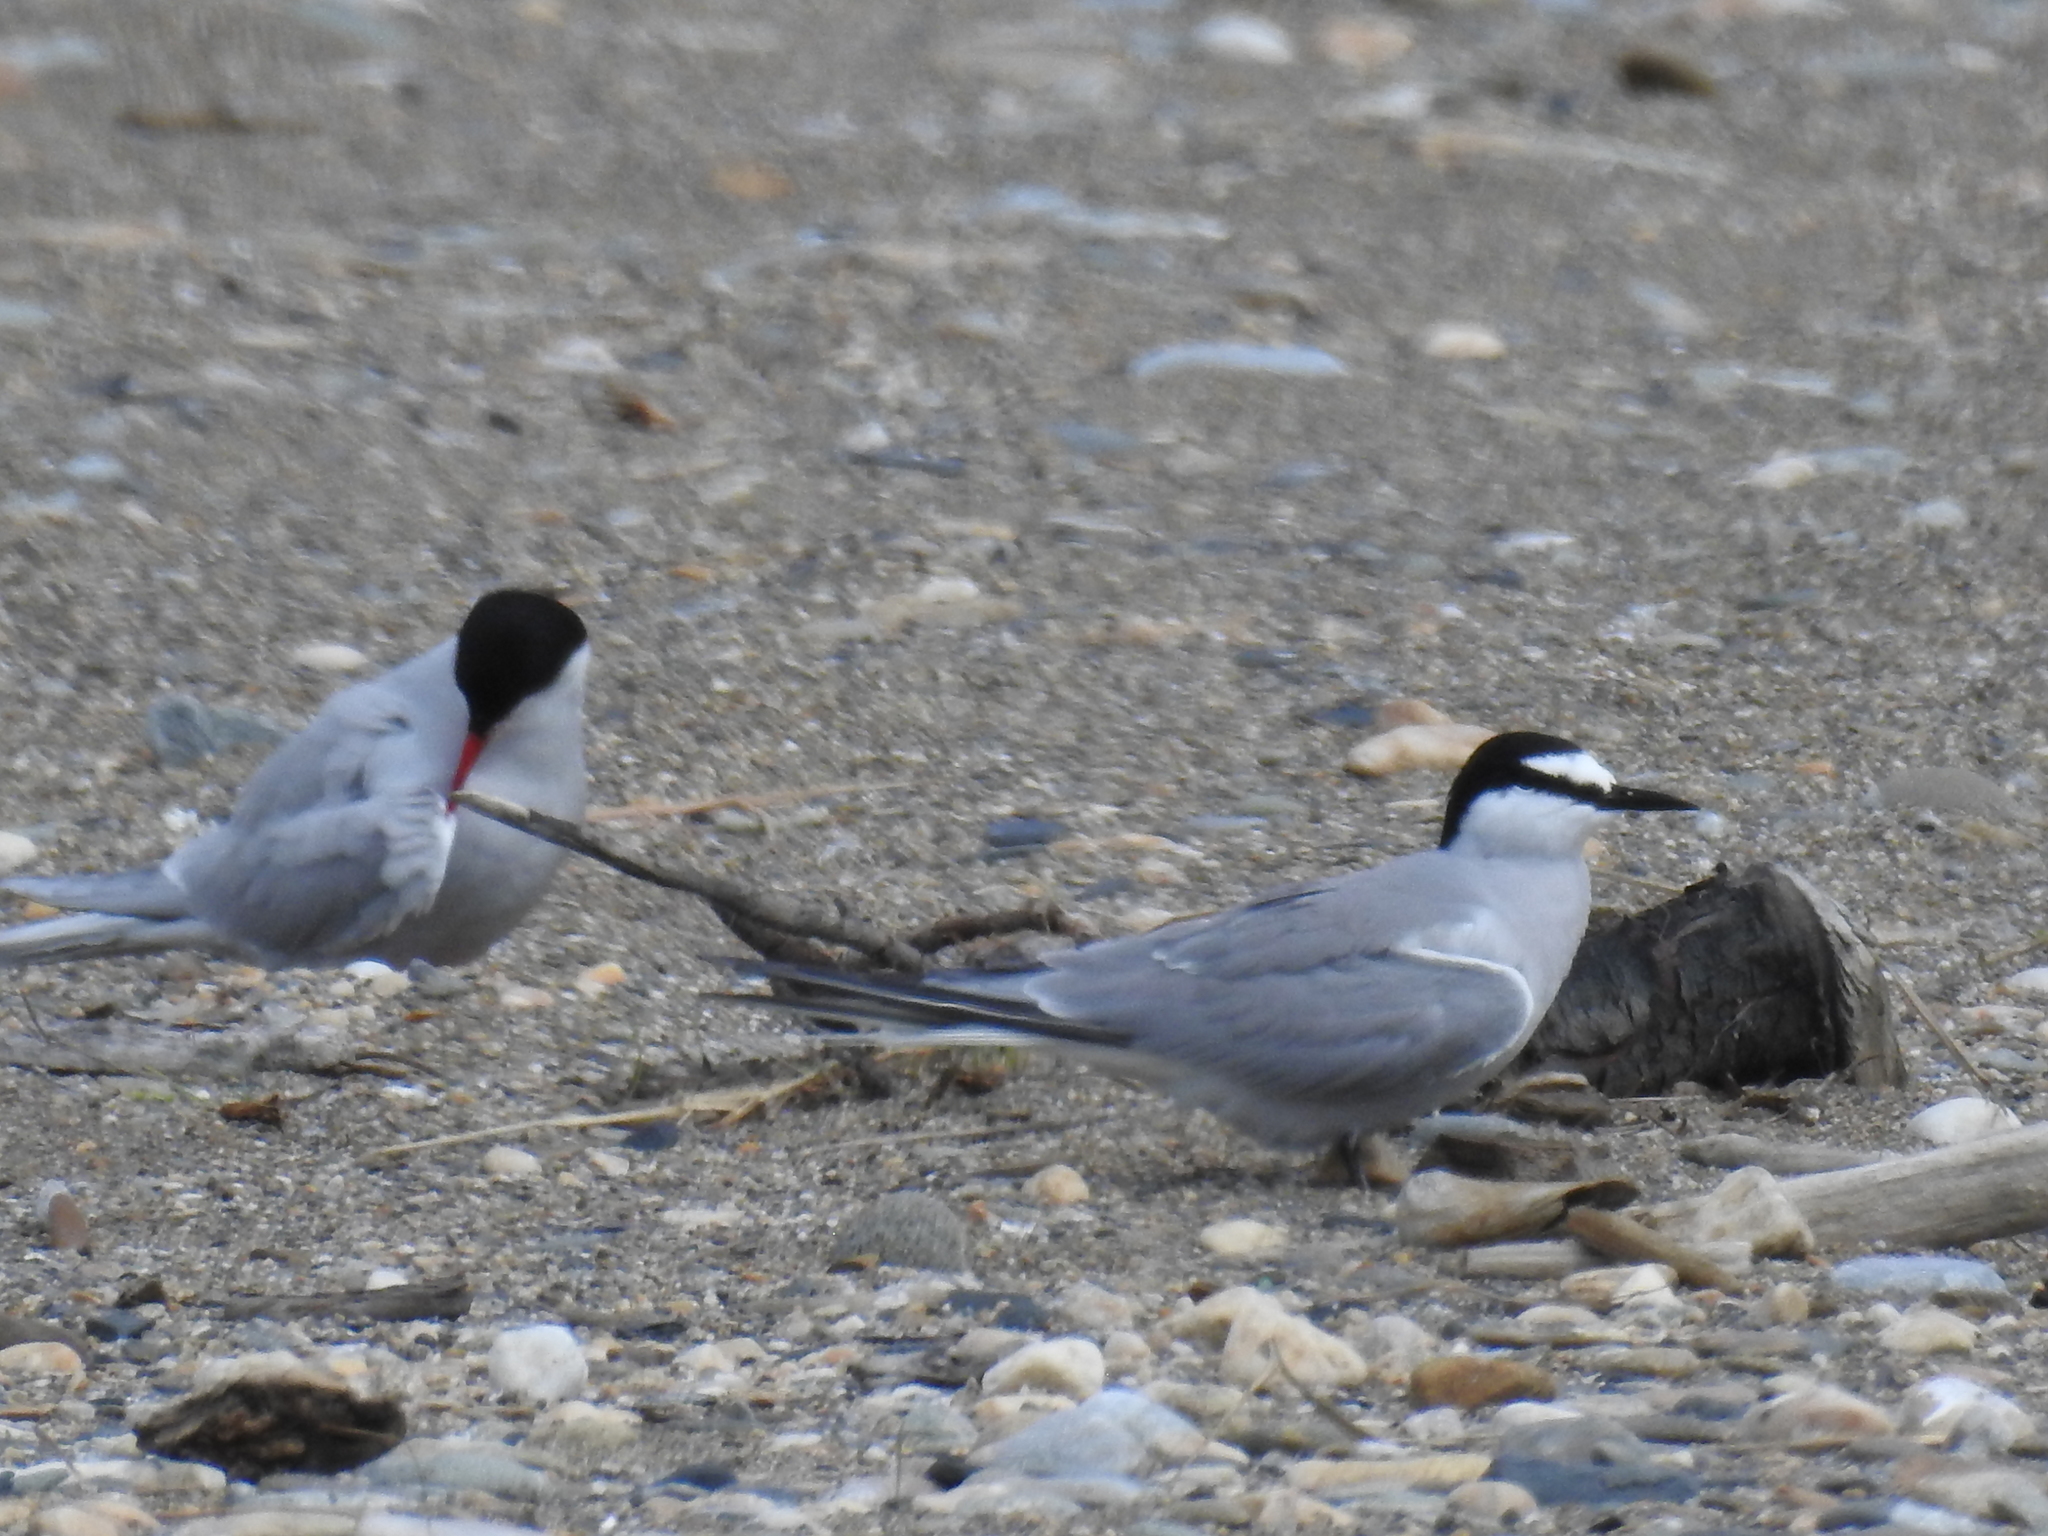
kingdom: Animalia
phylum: Chordata
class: Aves
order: Charadriiformes
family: Laridae
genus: Onychoprion
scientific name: Onychoprion aleuticus
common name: Aleutian tern
